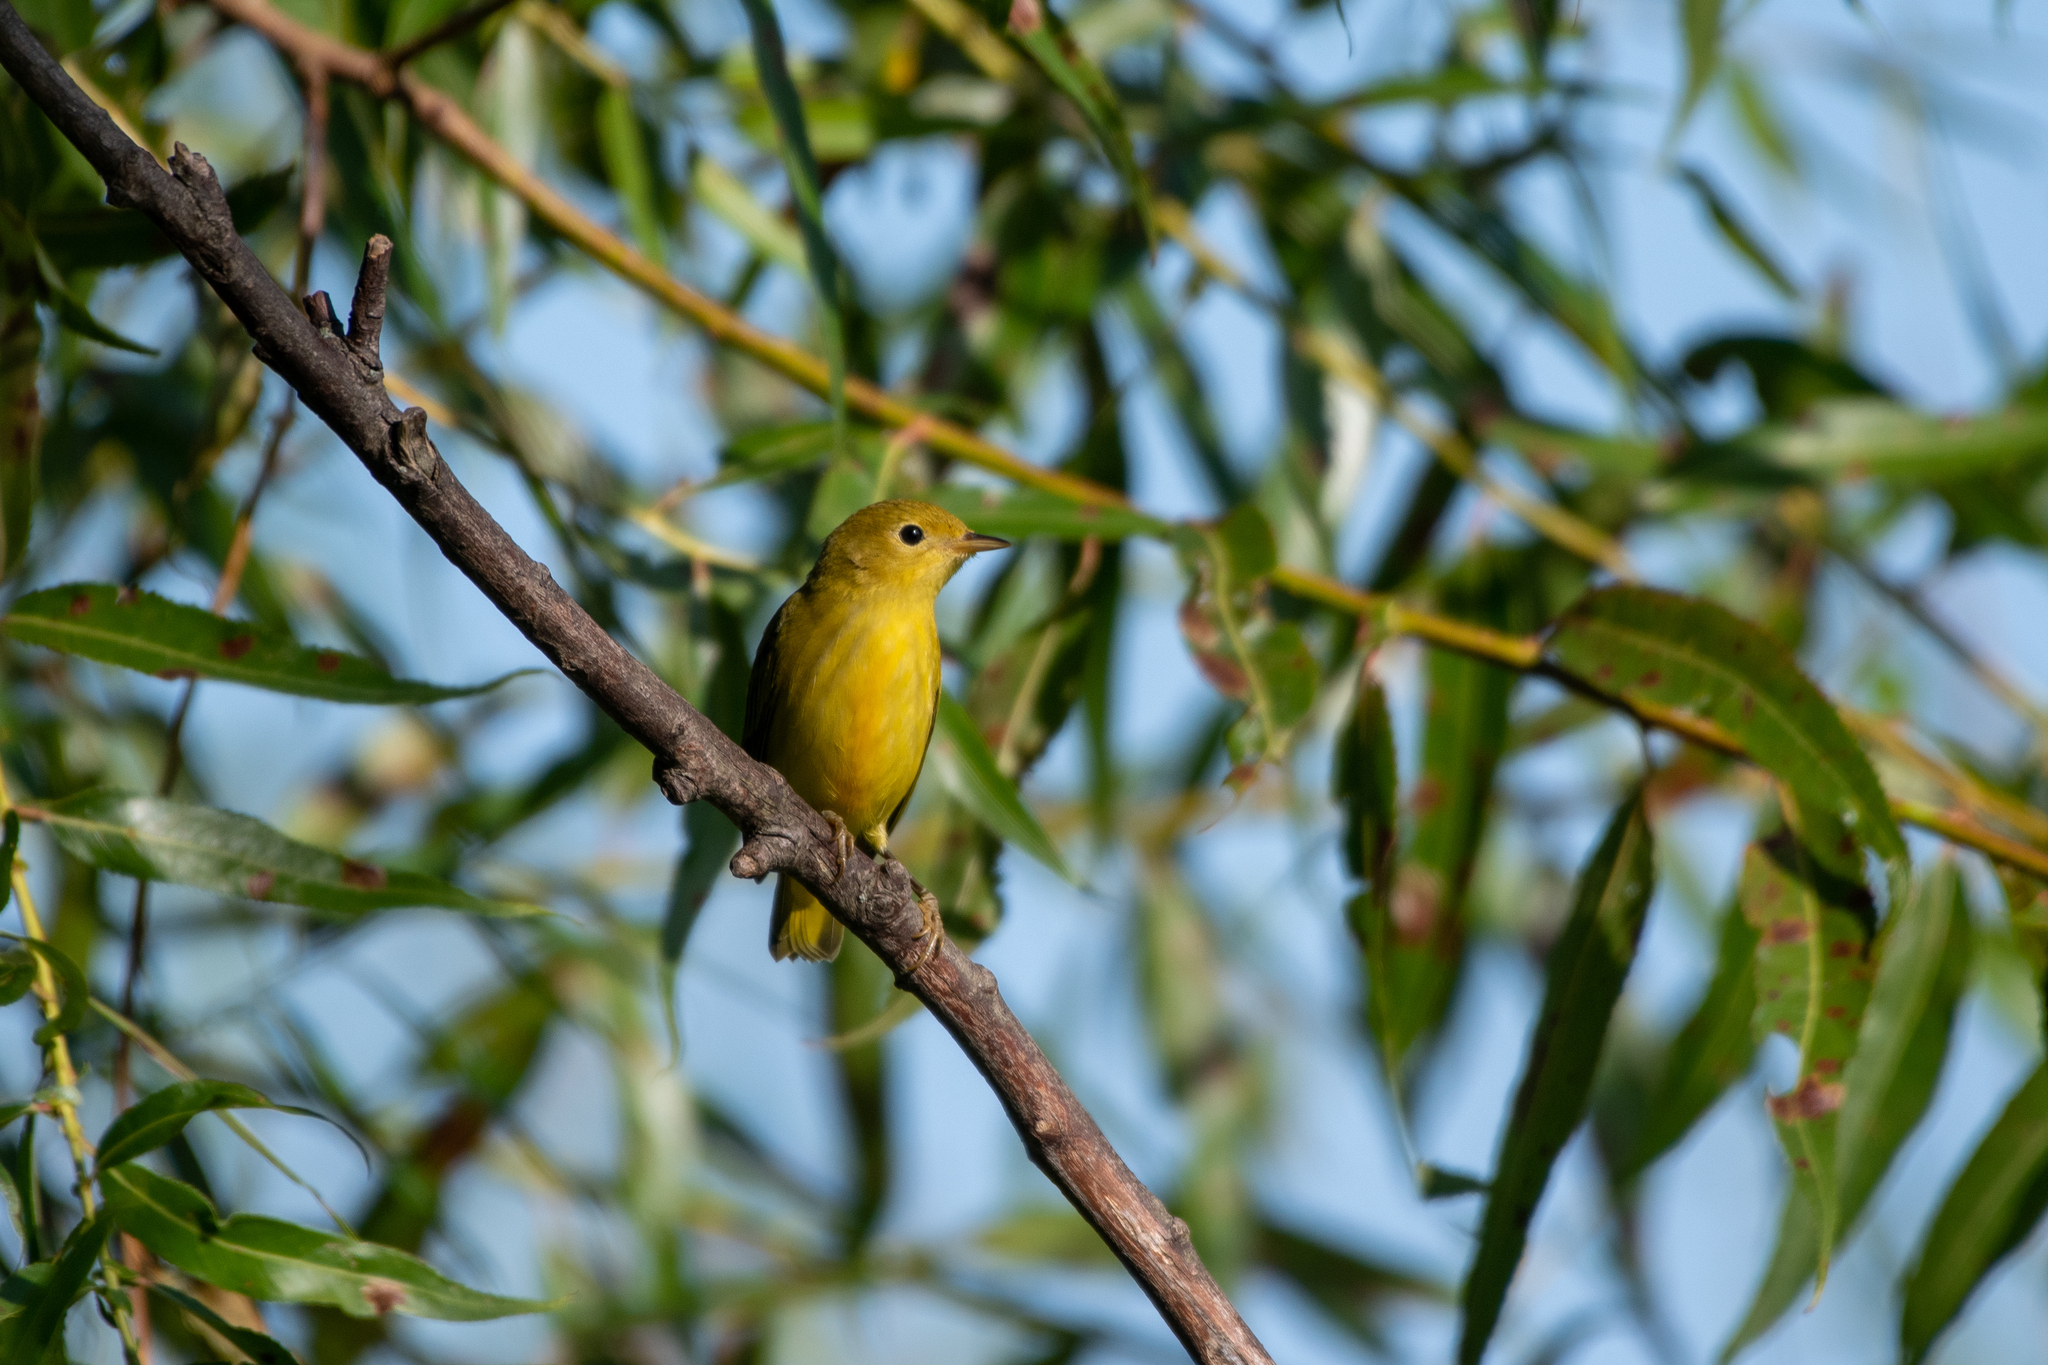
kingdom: Animalia
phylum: Chordata
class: Aves
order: Passeriformes
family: Parulidae
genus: Setophaga
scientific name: Setophaga petechia
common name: Yellow warbler
